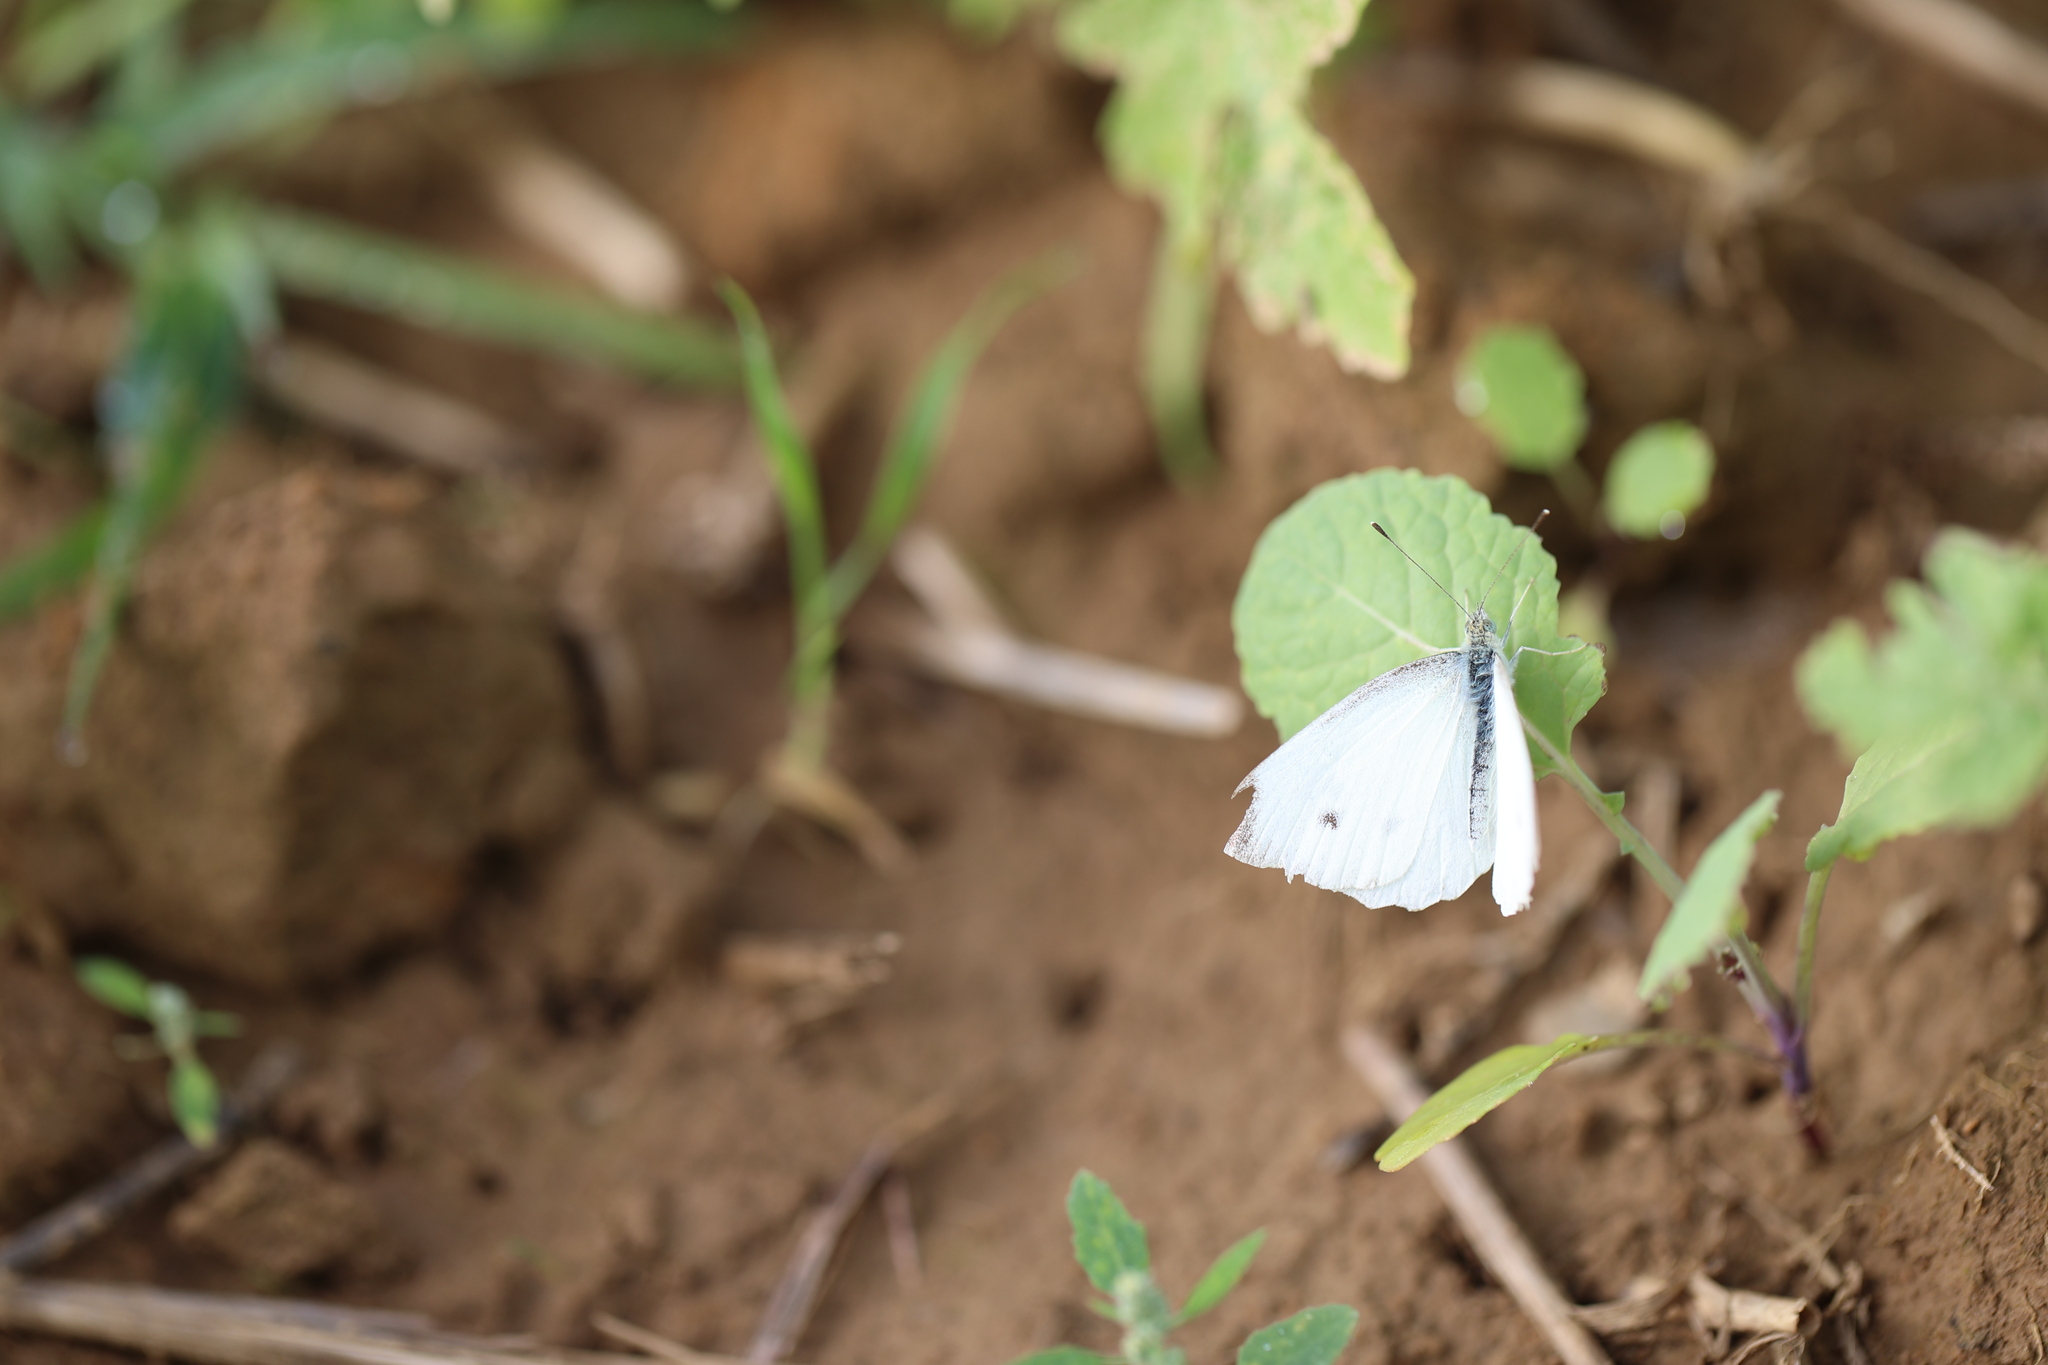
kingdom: Animalia
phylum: Arthropoda
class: Insecta
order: Lepidoptera
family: Pieridae
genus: Pieris
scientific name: Pieris rapae
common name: Small white
